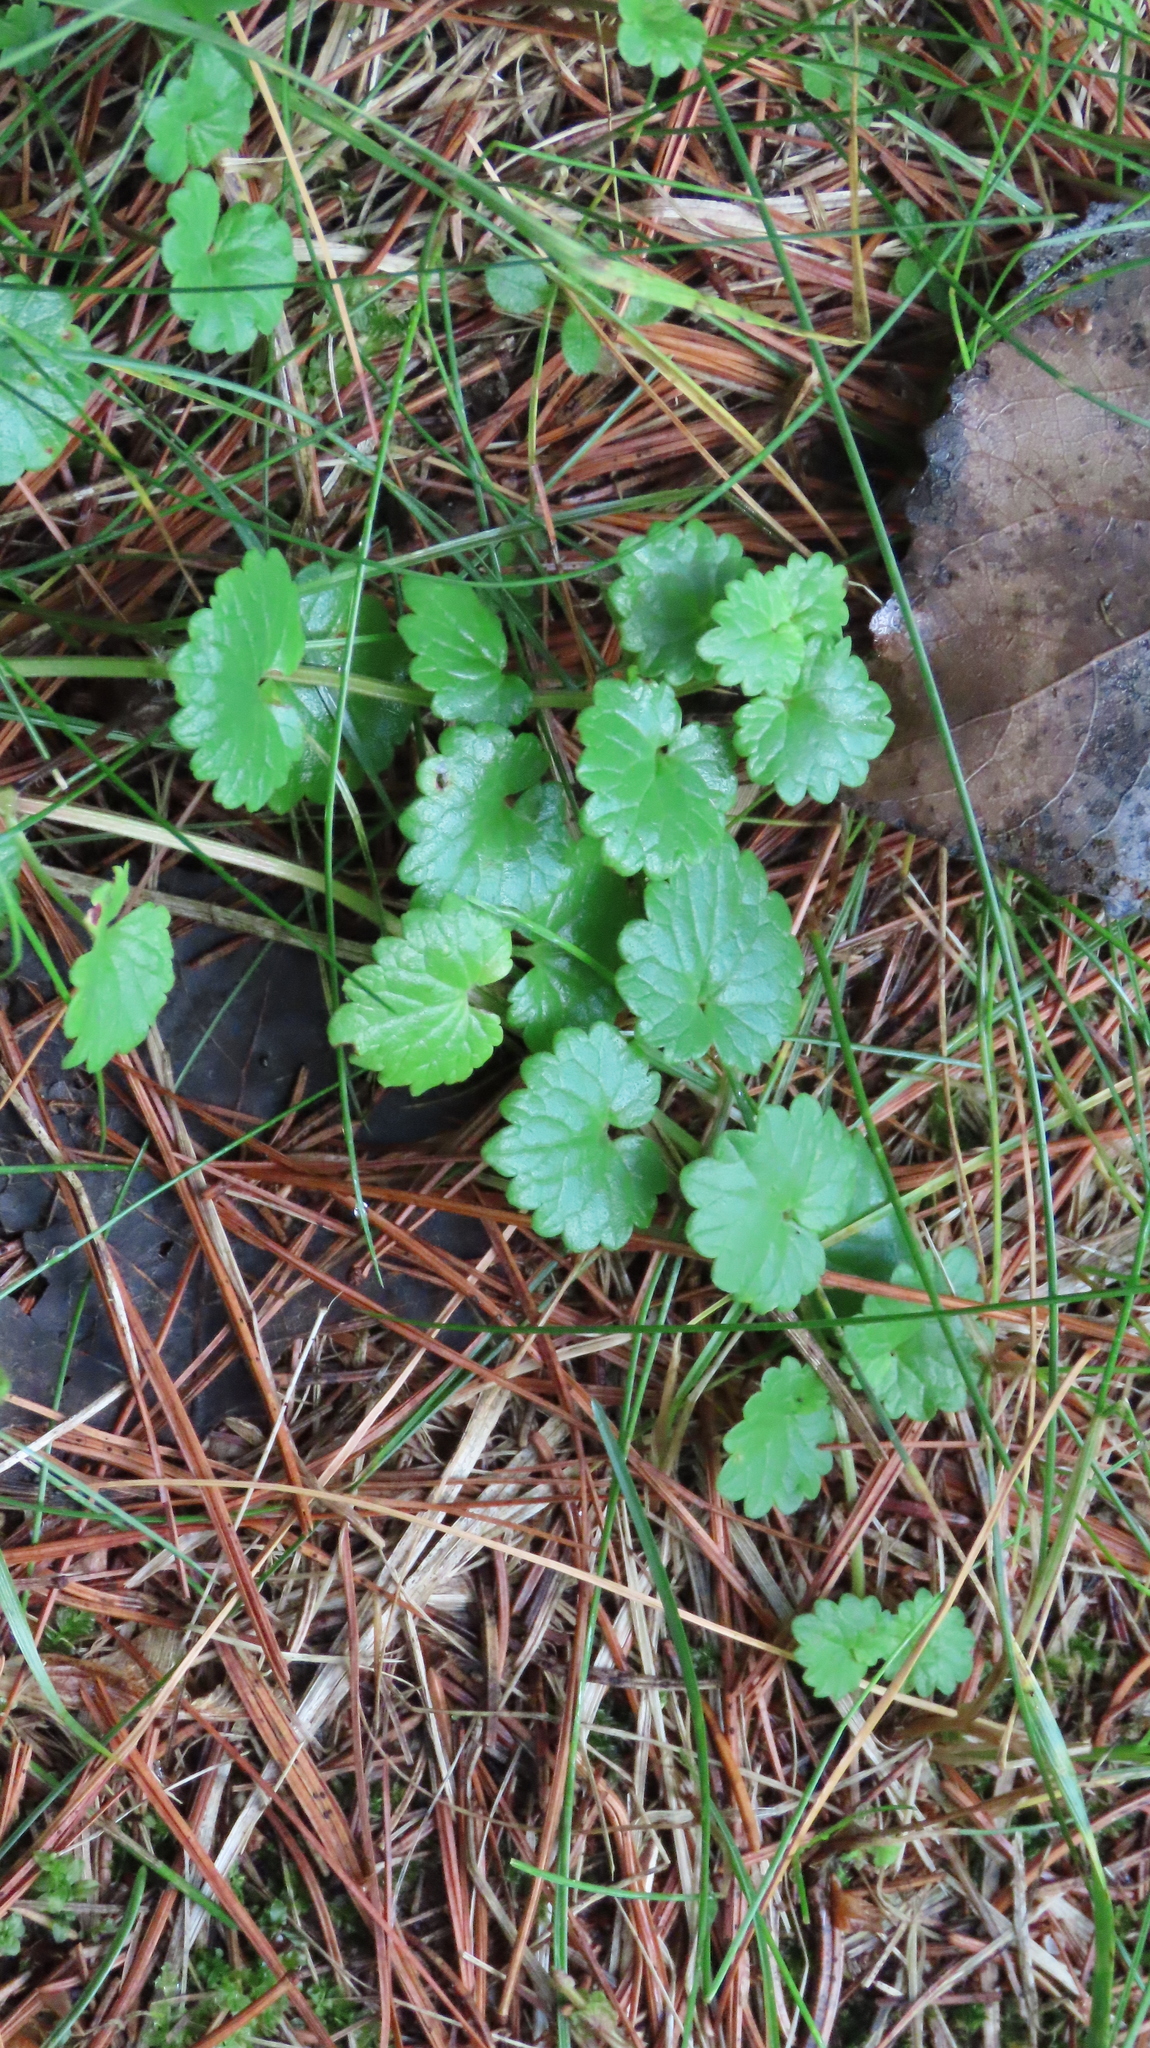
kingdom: Plantae
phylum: Tracheophyta
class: Magnoliopsida
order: Lamiales
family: Lamiaceae
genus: Glechoma
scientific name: Glechoma hederacea
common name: Ground ivy
